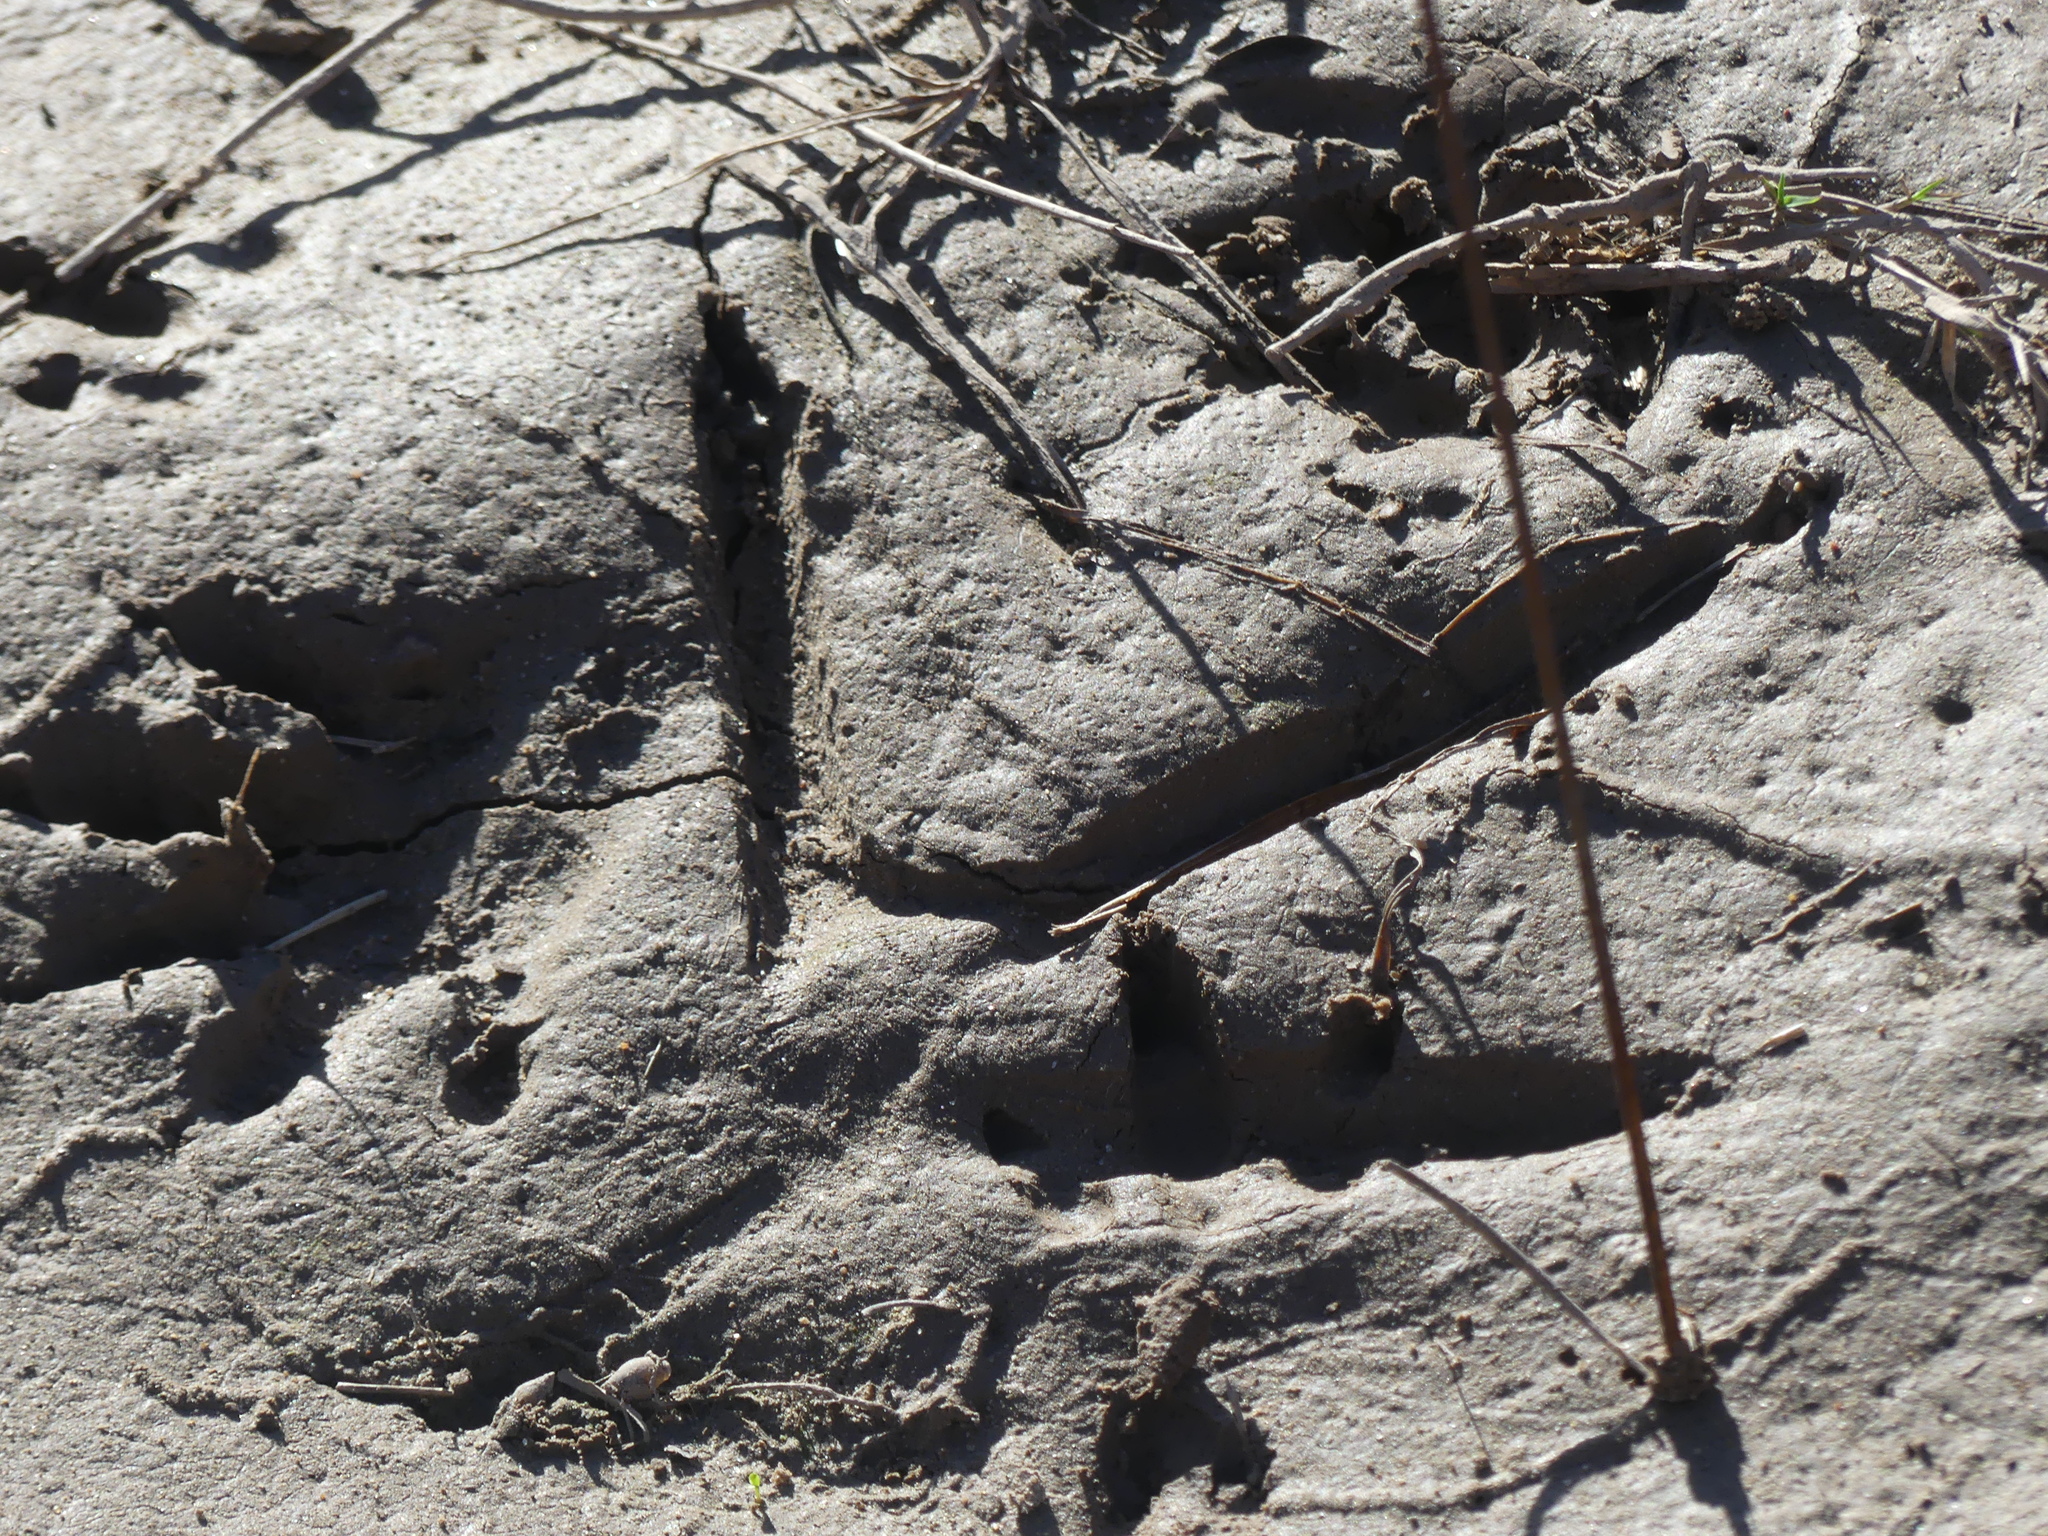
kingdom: Animalia
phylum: Chordata
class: Aves
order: Pelecaniformes
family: Ardeidae
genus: Ardea
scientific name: Ardea herodias
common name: Great blue heron
